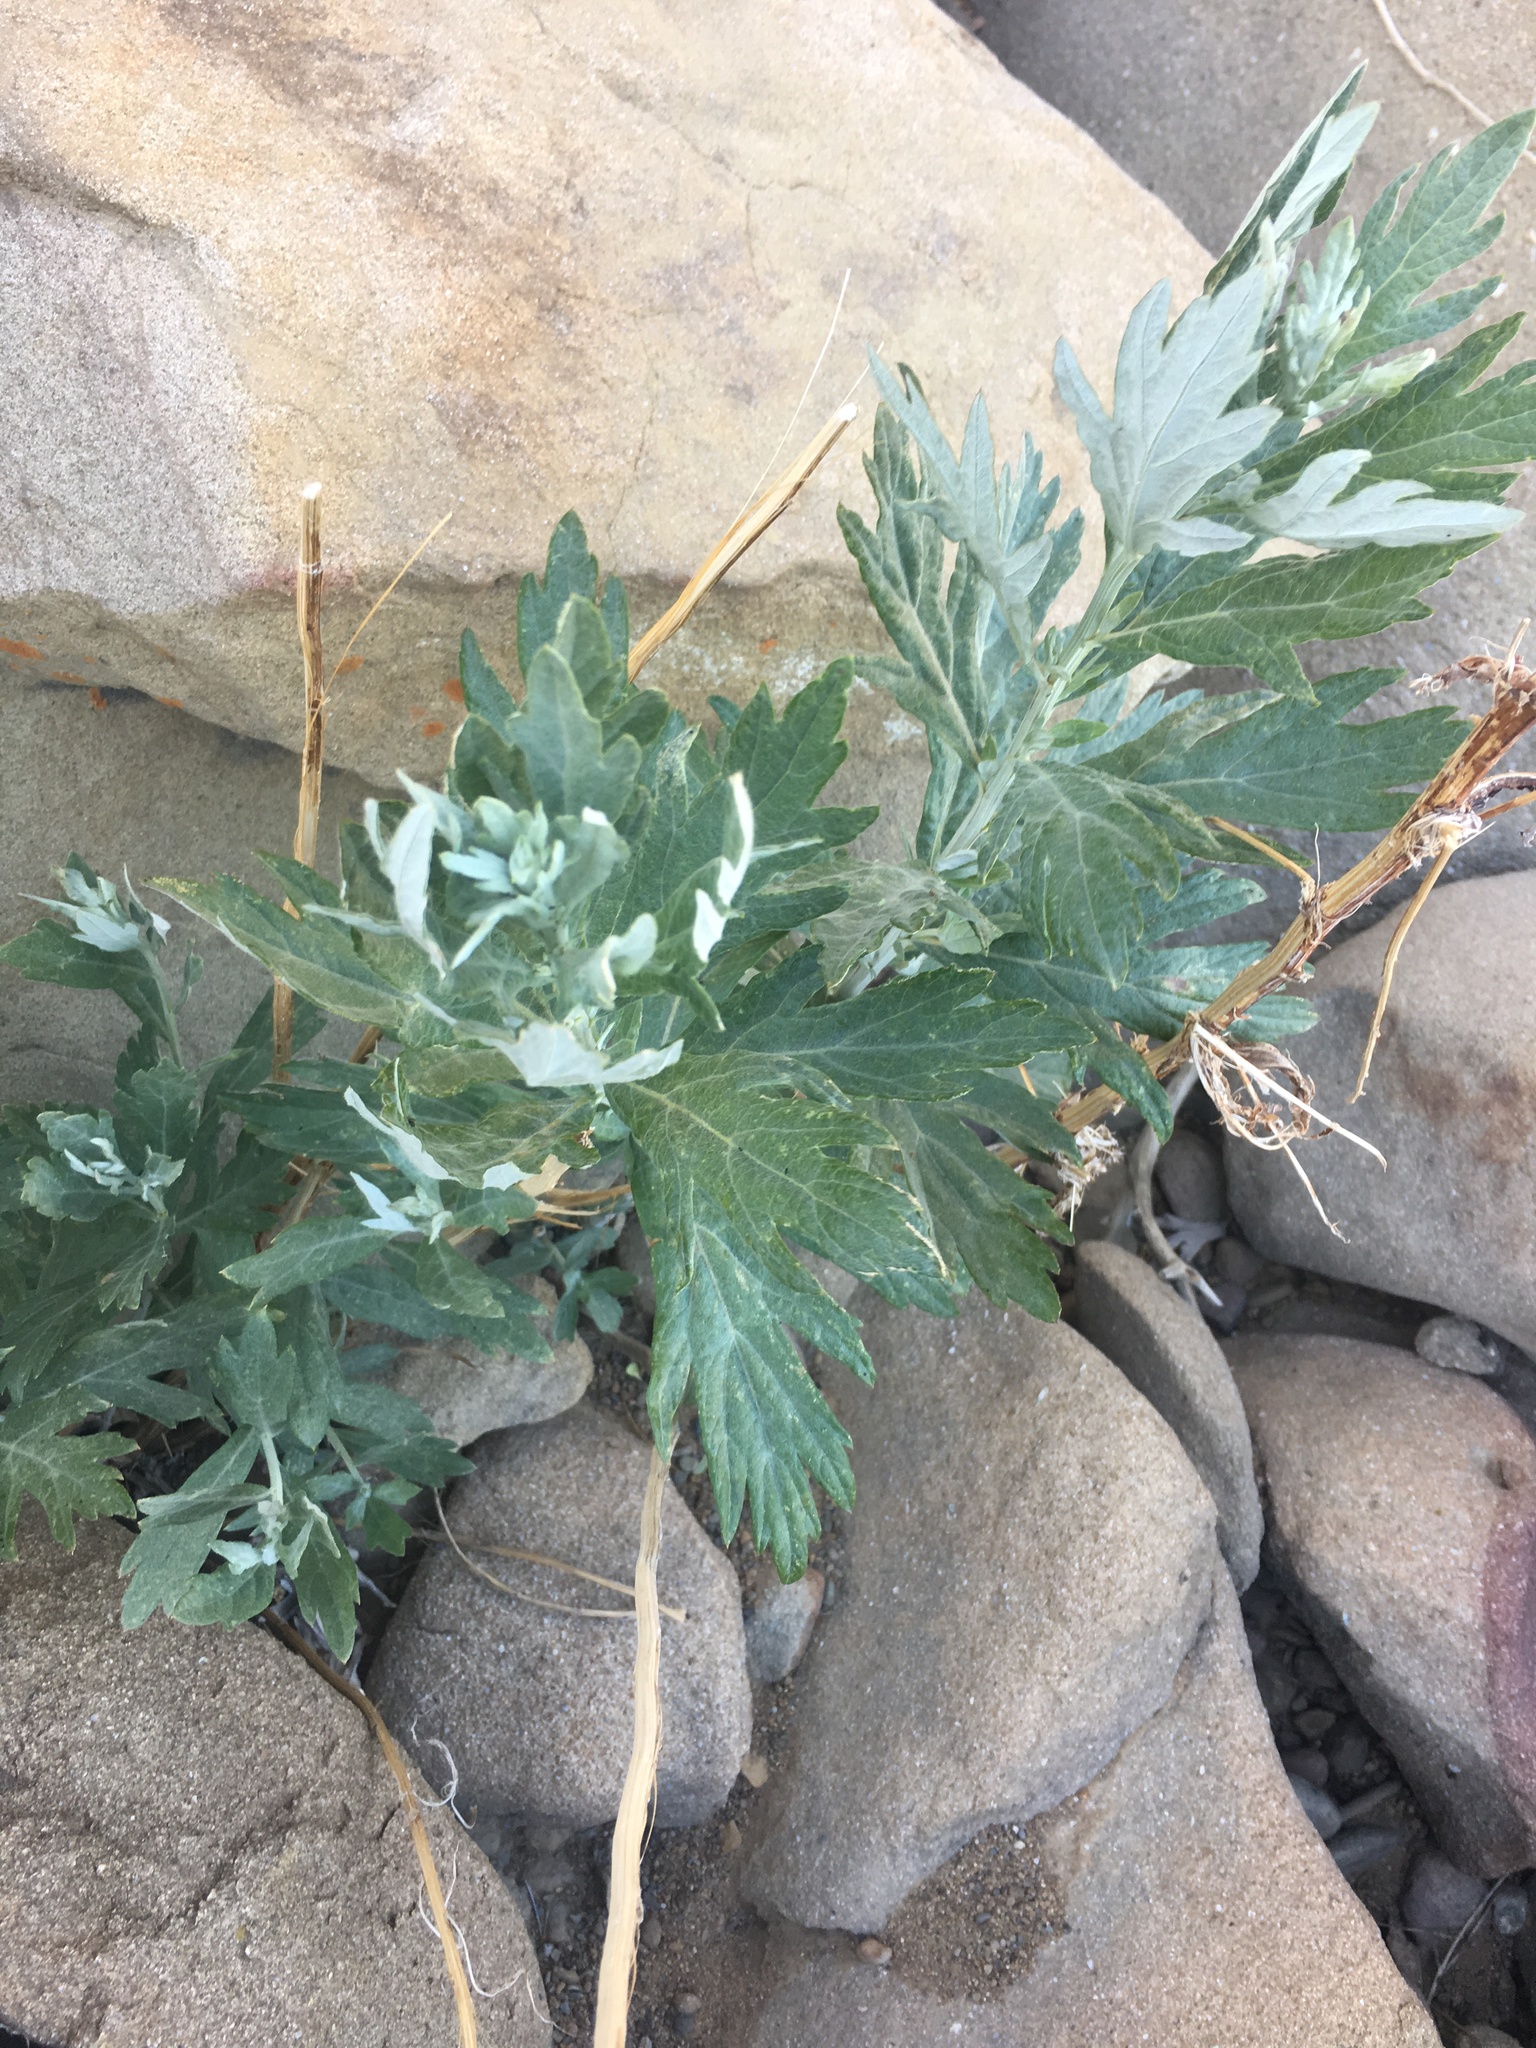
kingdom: Plantae
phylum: Tracheophyta
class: Magnoliopsida
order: Asterales
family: Asteraceae
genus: Artemisia
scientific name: Artemisia douglasiana
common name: Northwest mugwort
